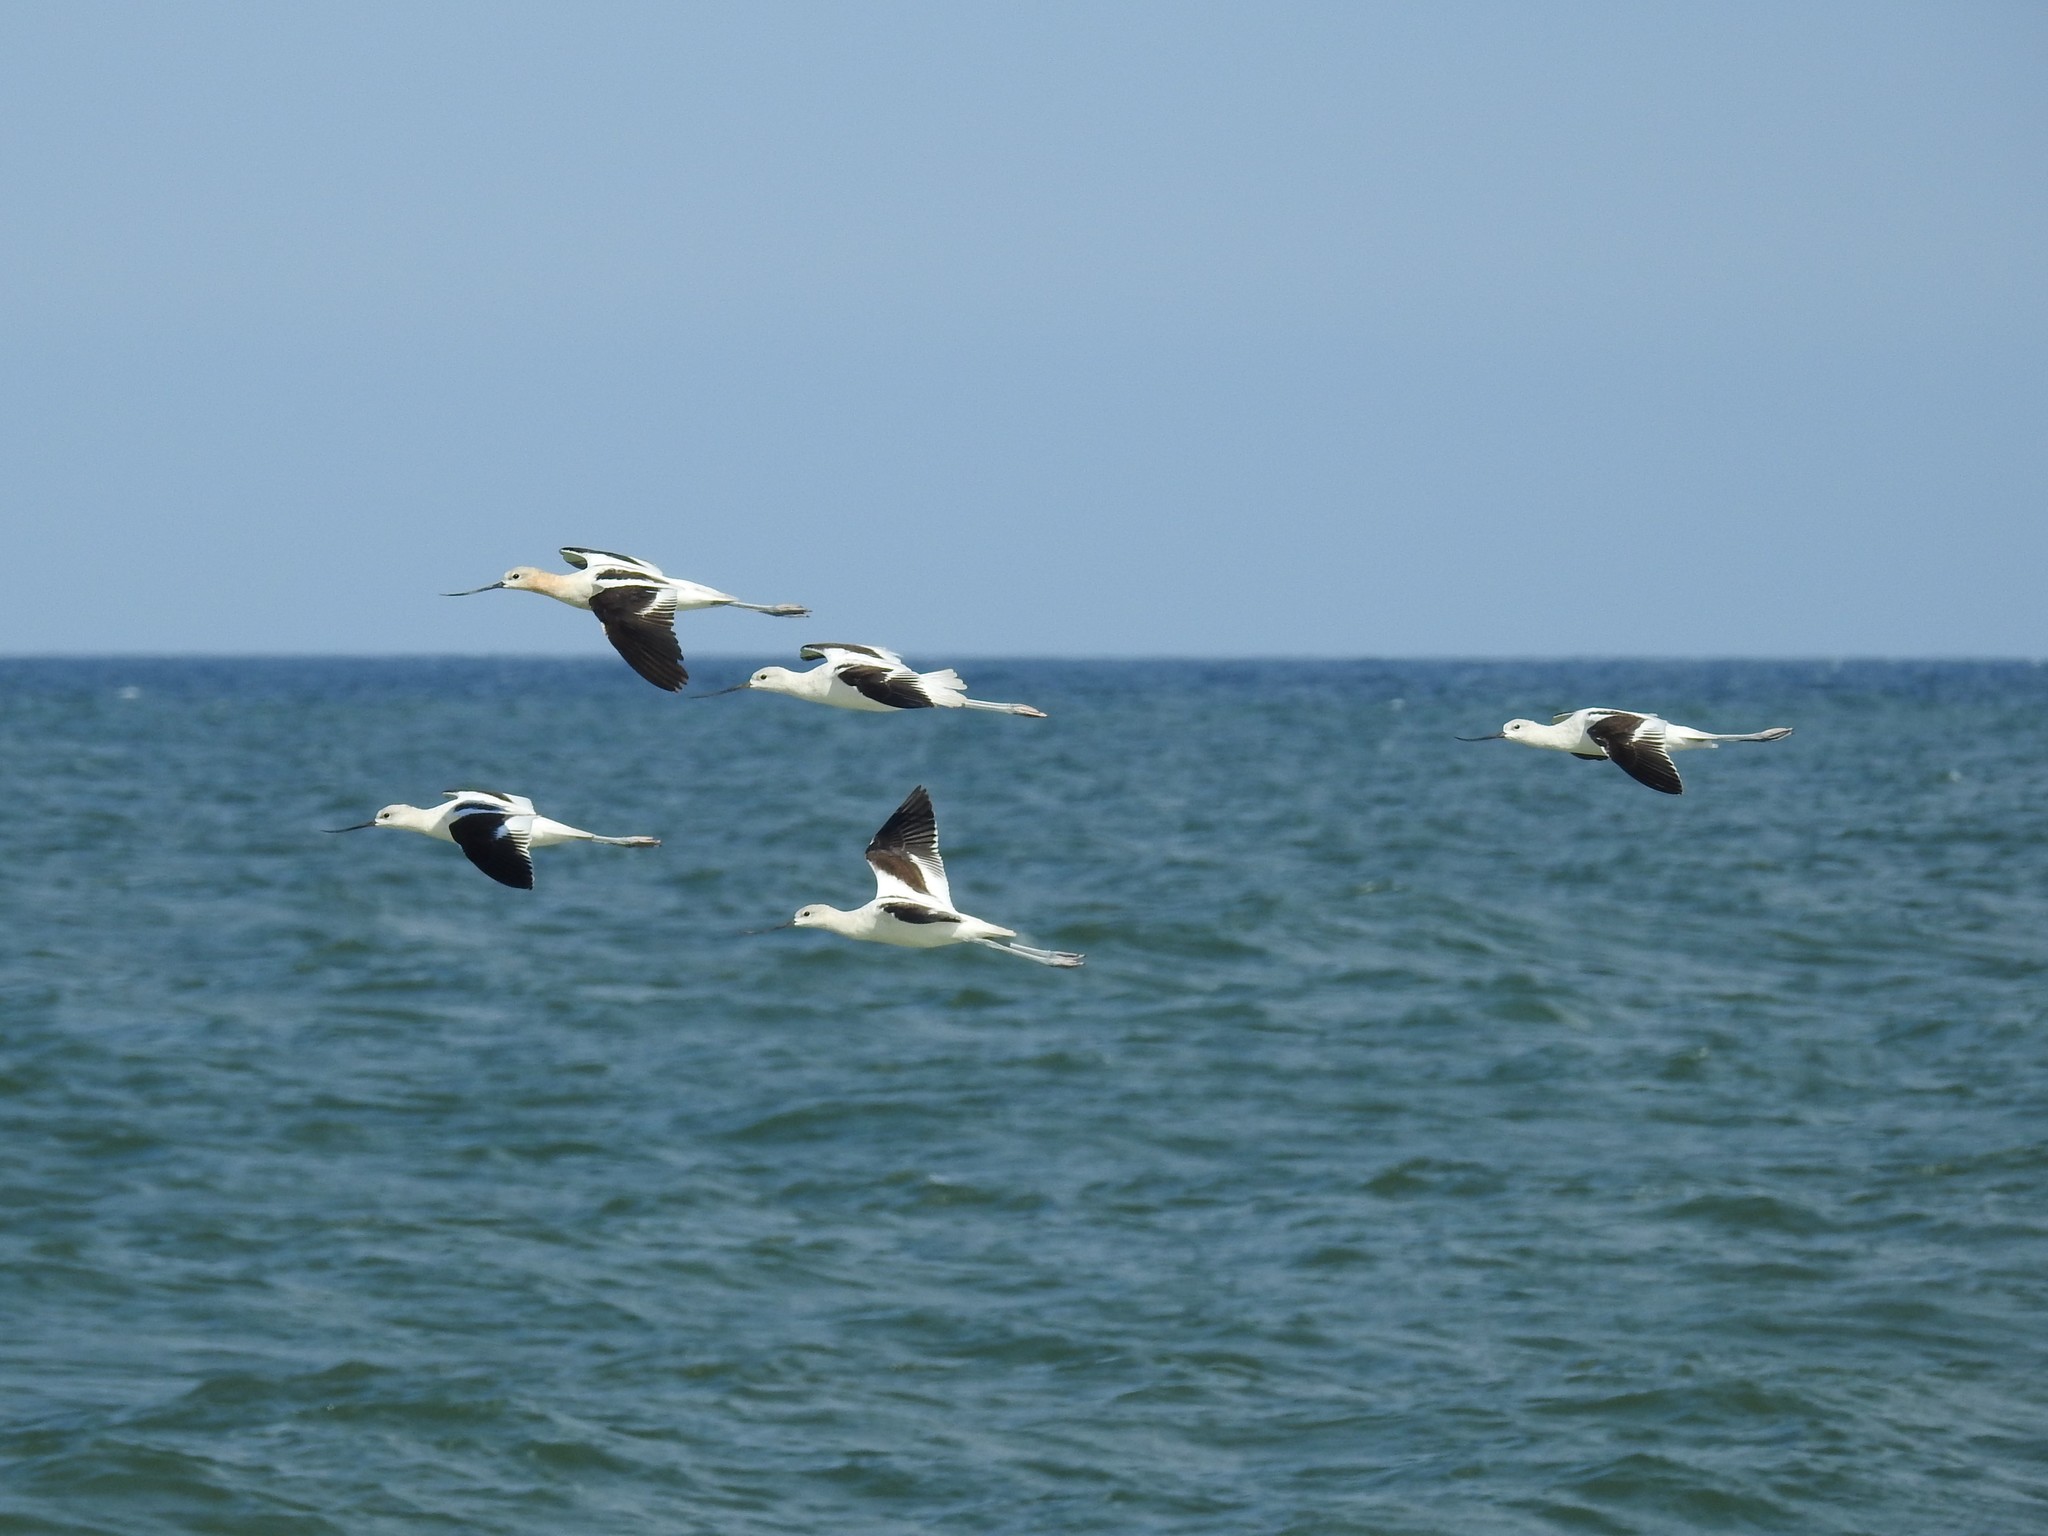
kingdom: Animalia
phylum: Chordata
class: Aves
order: Charadriiformes
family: Recurvirostridae
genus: Recurvirostra
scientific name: Recurvirostra americana
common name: American avocet
